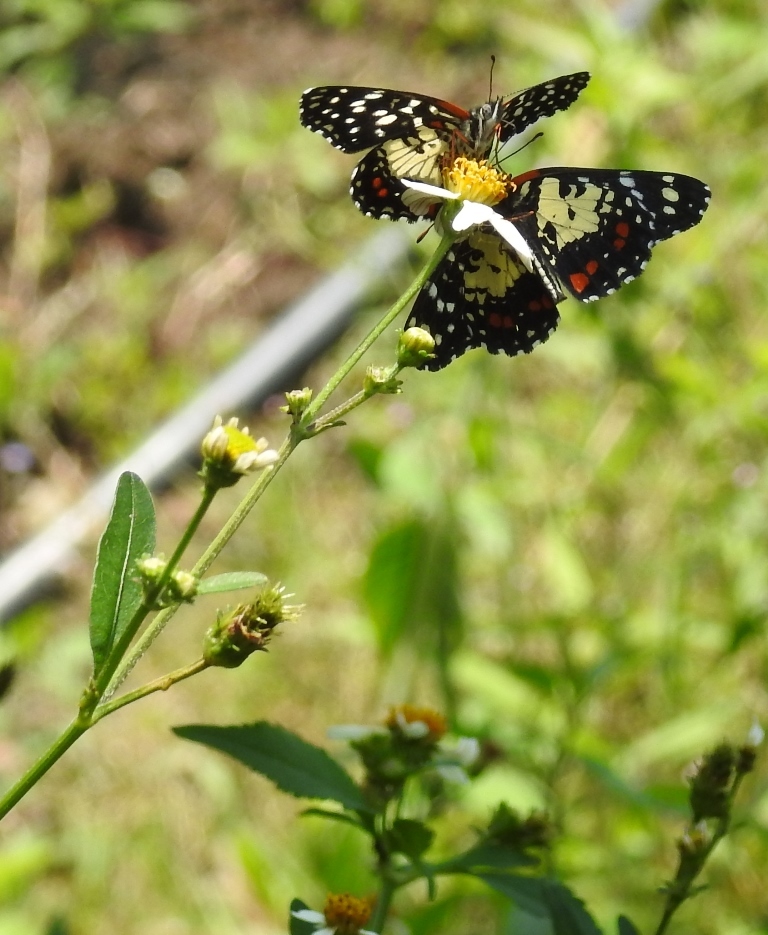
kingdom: Animalia
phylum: Arthropoda
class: Insecta
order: Lepidoptera
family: Nymphalidae
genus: Chlosyne
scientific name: Chlosyne erodyle
